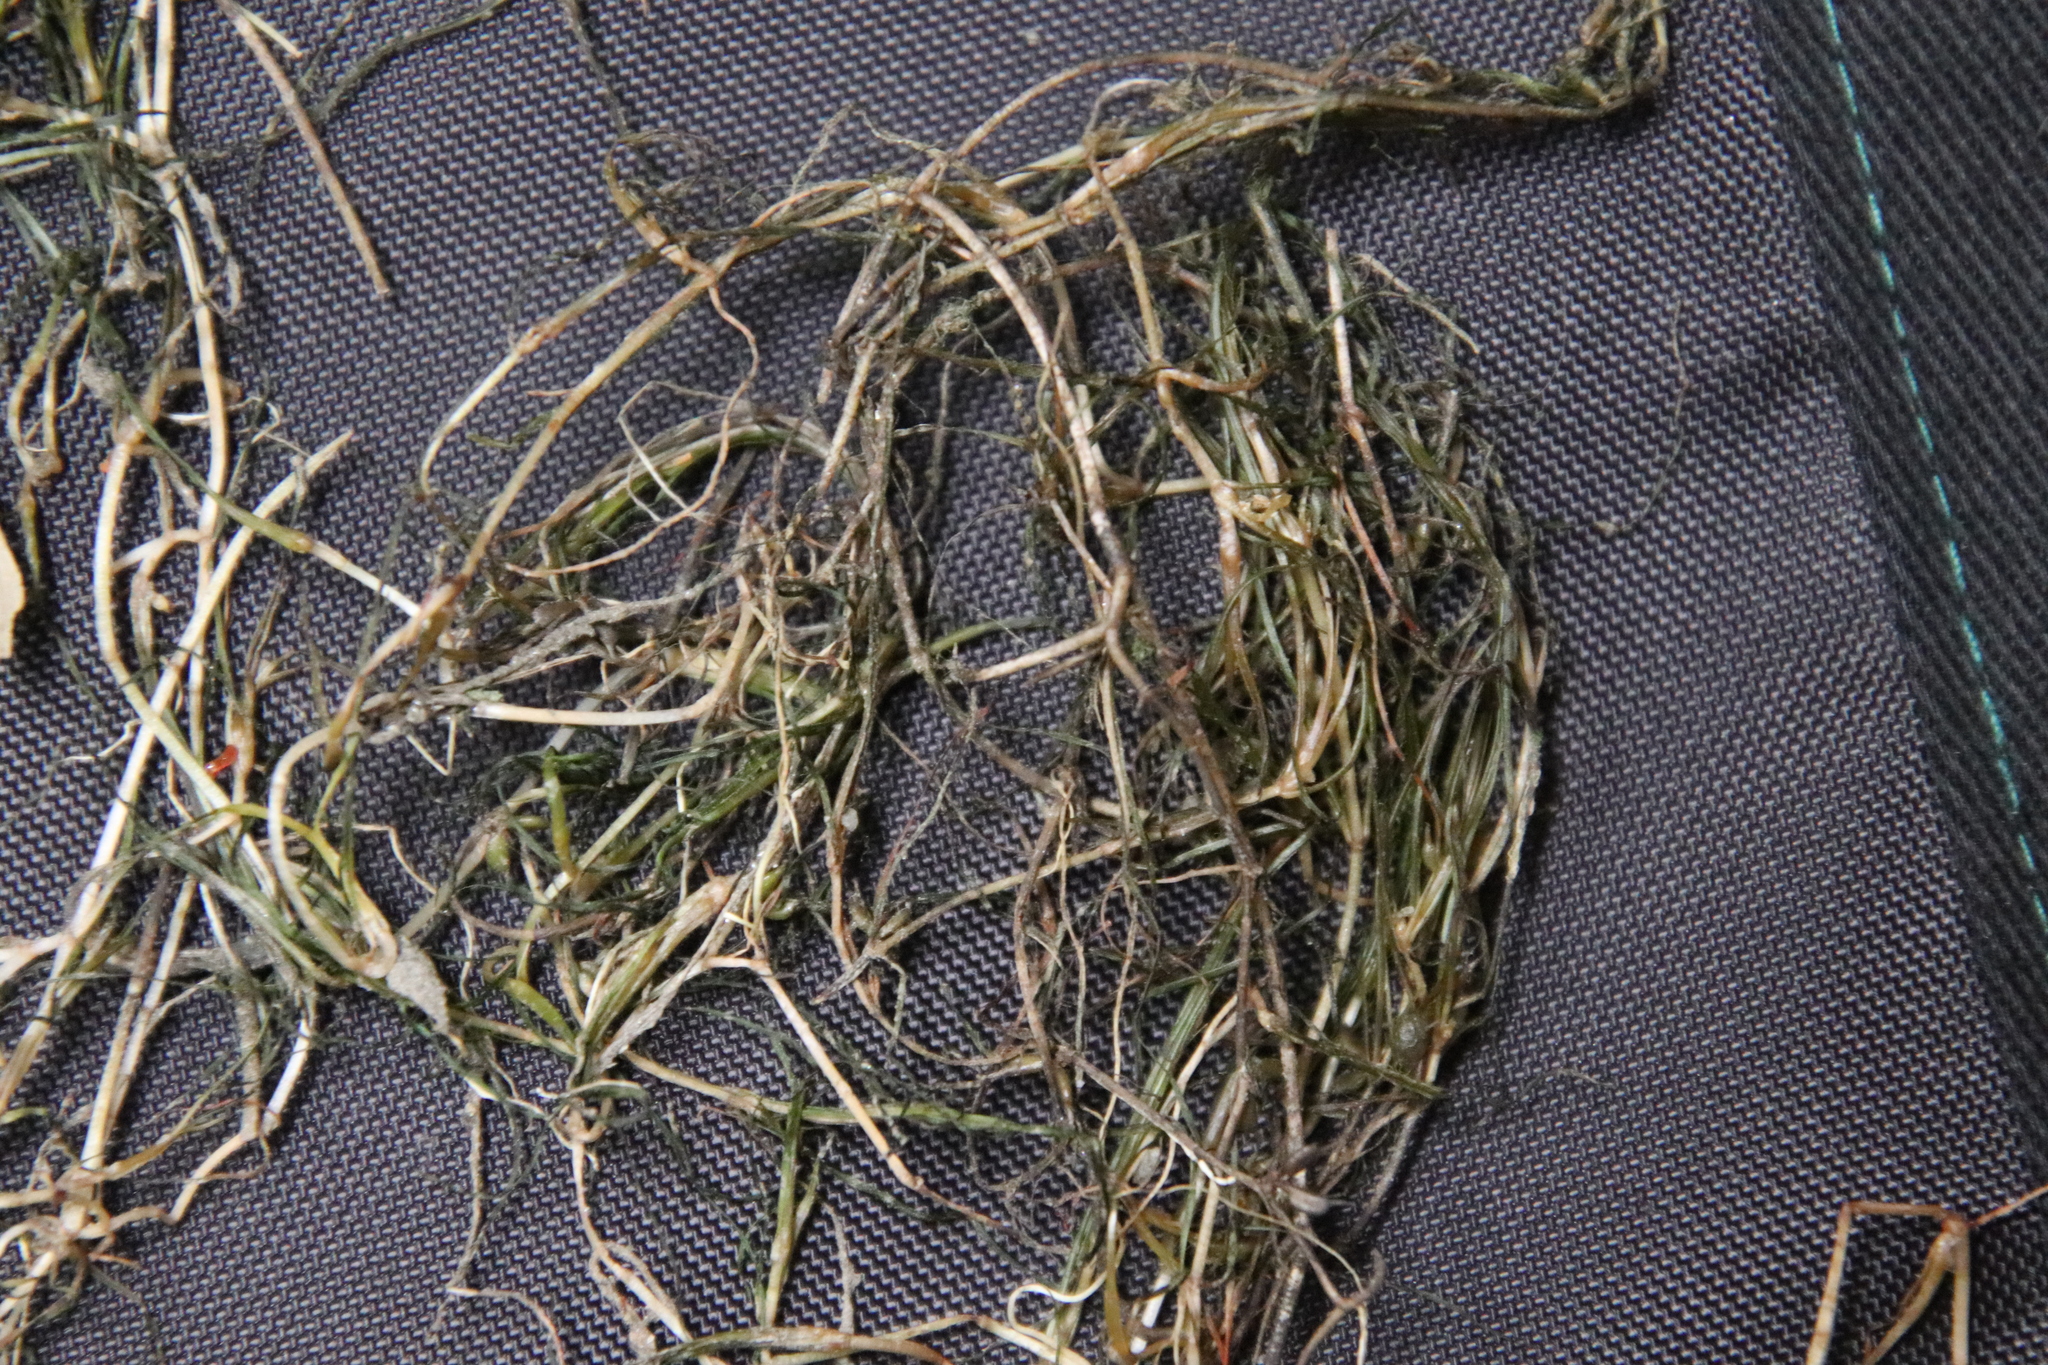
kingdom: Plantae
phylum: Tracheophyta
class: Liliopsida
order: Alismatales
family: Potamogetonaceae
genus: Zannichellia
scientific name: Zannichellia palustris
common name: Horned pondweed
